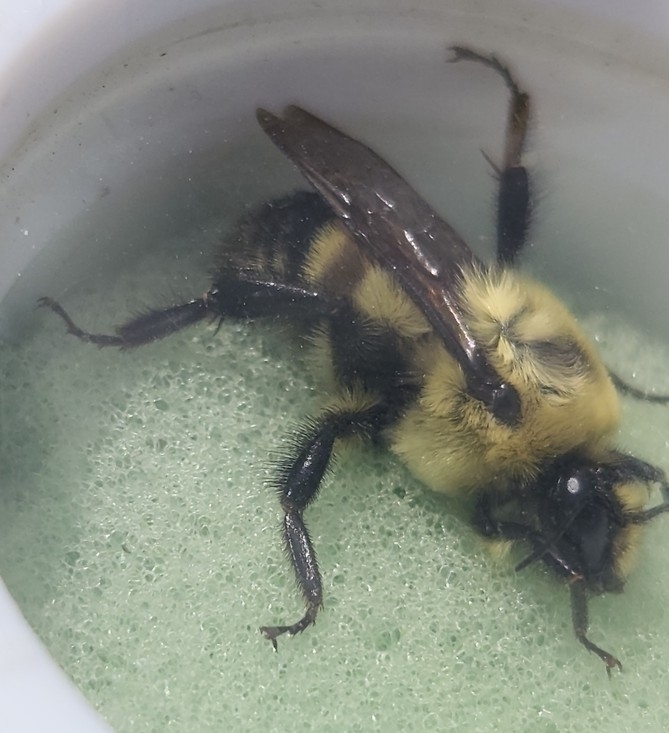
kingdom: Animalia
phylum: Arthropoda
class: Insecta
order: Hymenoptera
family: Apidae
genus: Bombus
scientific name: Bombus griseocollis
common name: Brown-belted bumble bee
